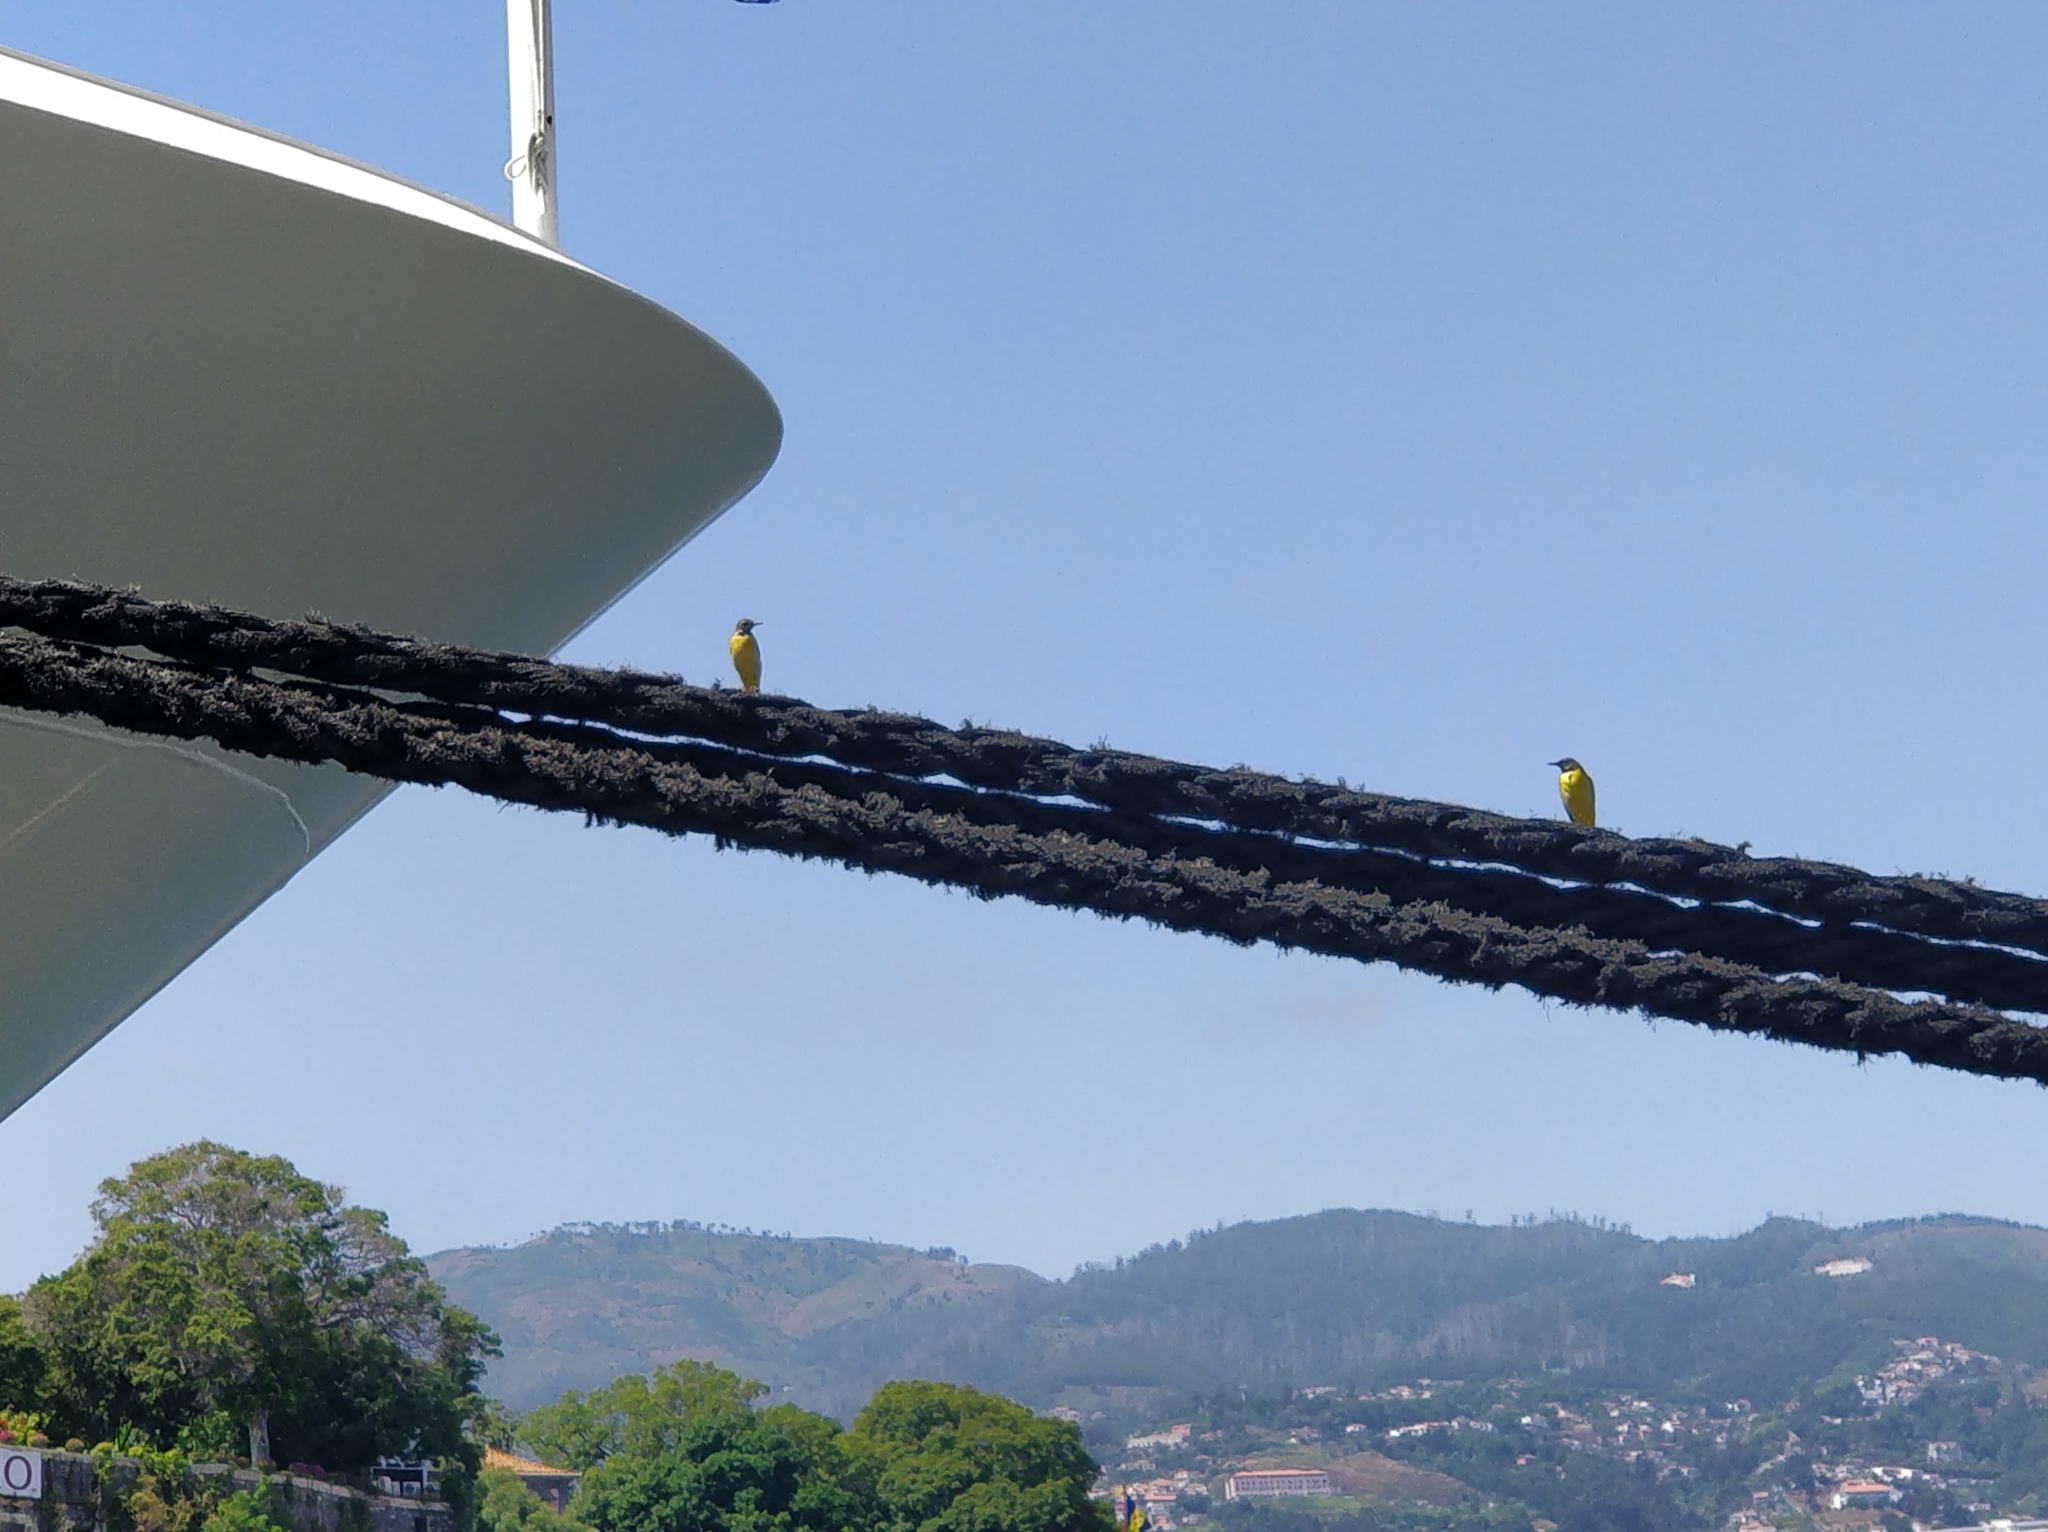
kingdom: Animalia
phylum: Chordata
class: Aves
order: Passeriformes
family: Motacillidae
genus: Motacilla
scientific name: Motacilla cinerea
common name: Grey wagtail
